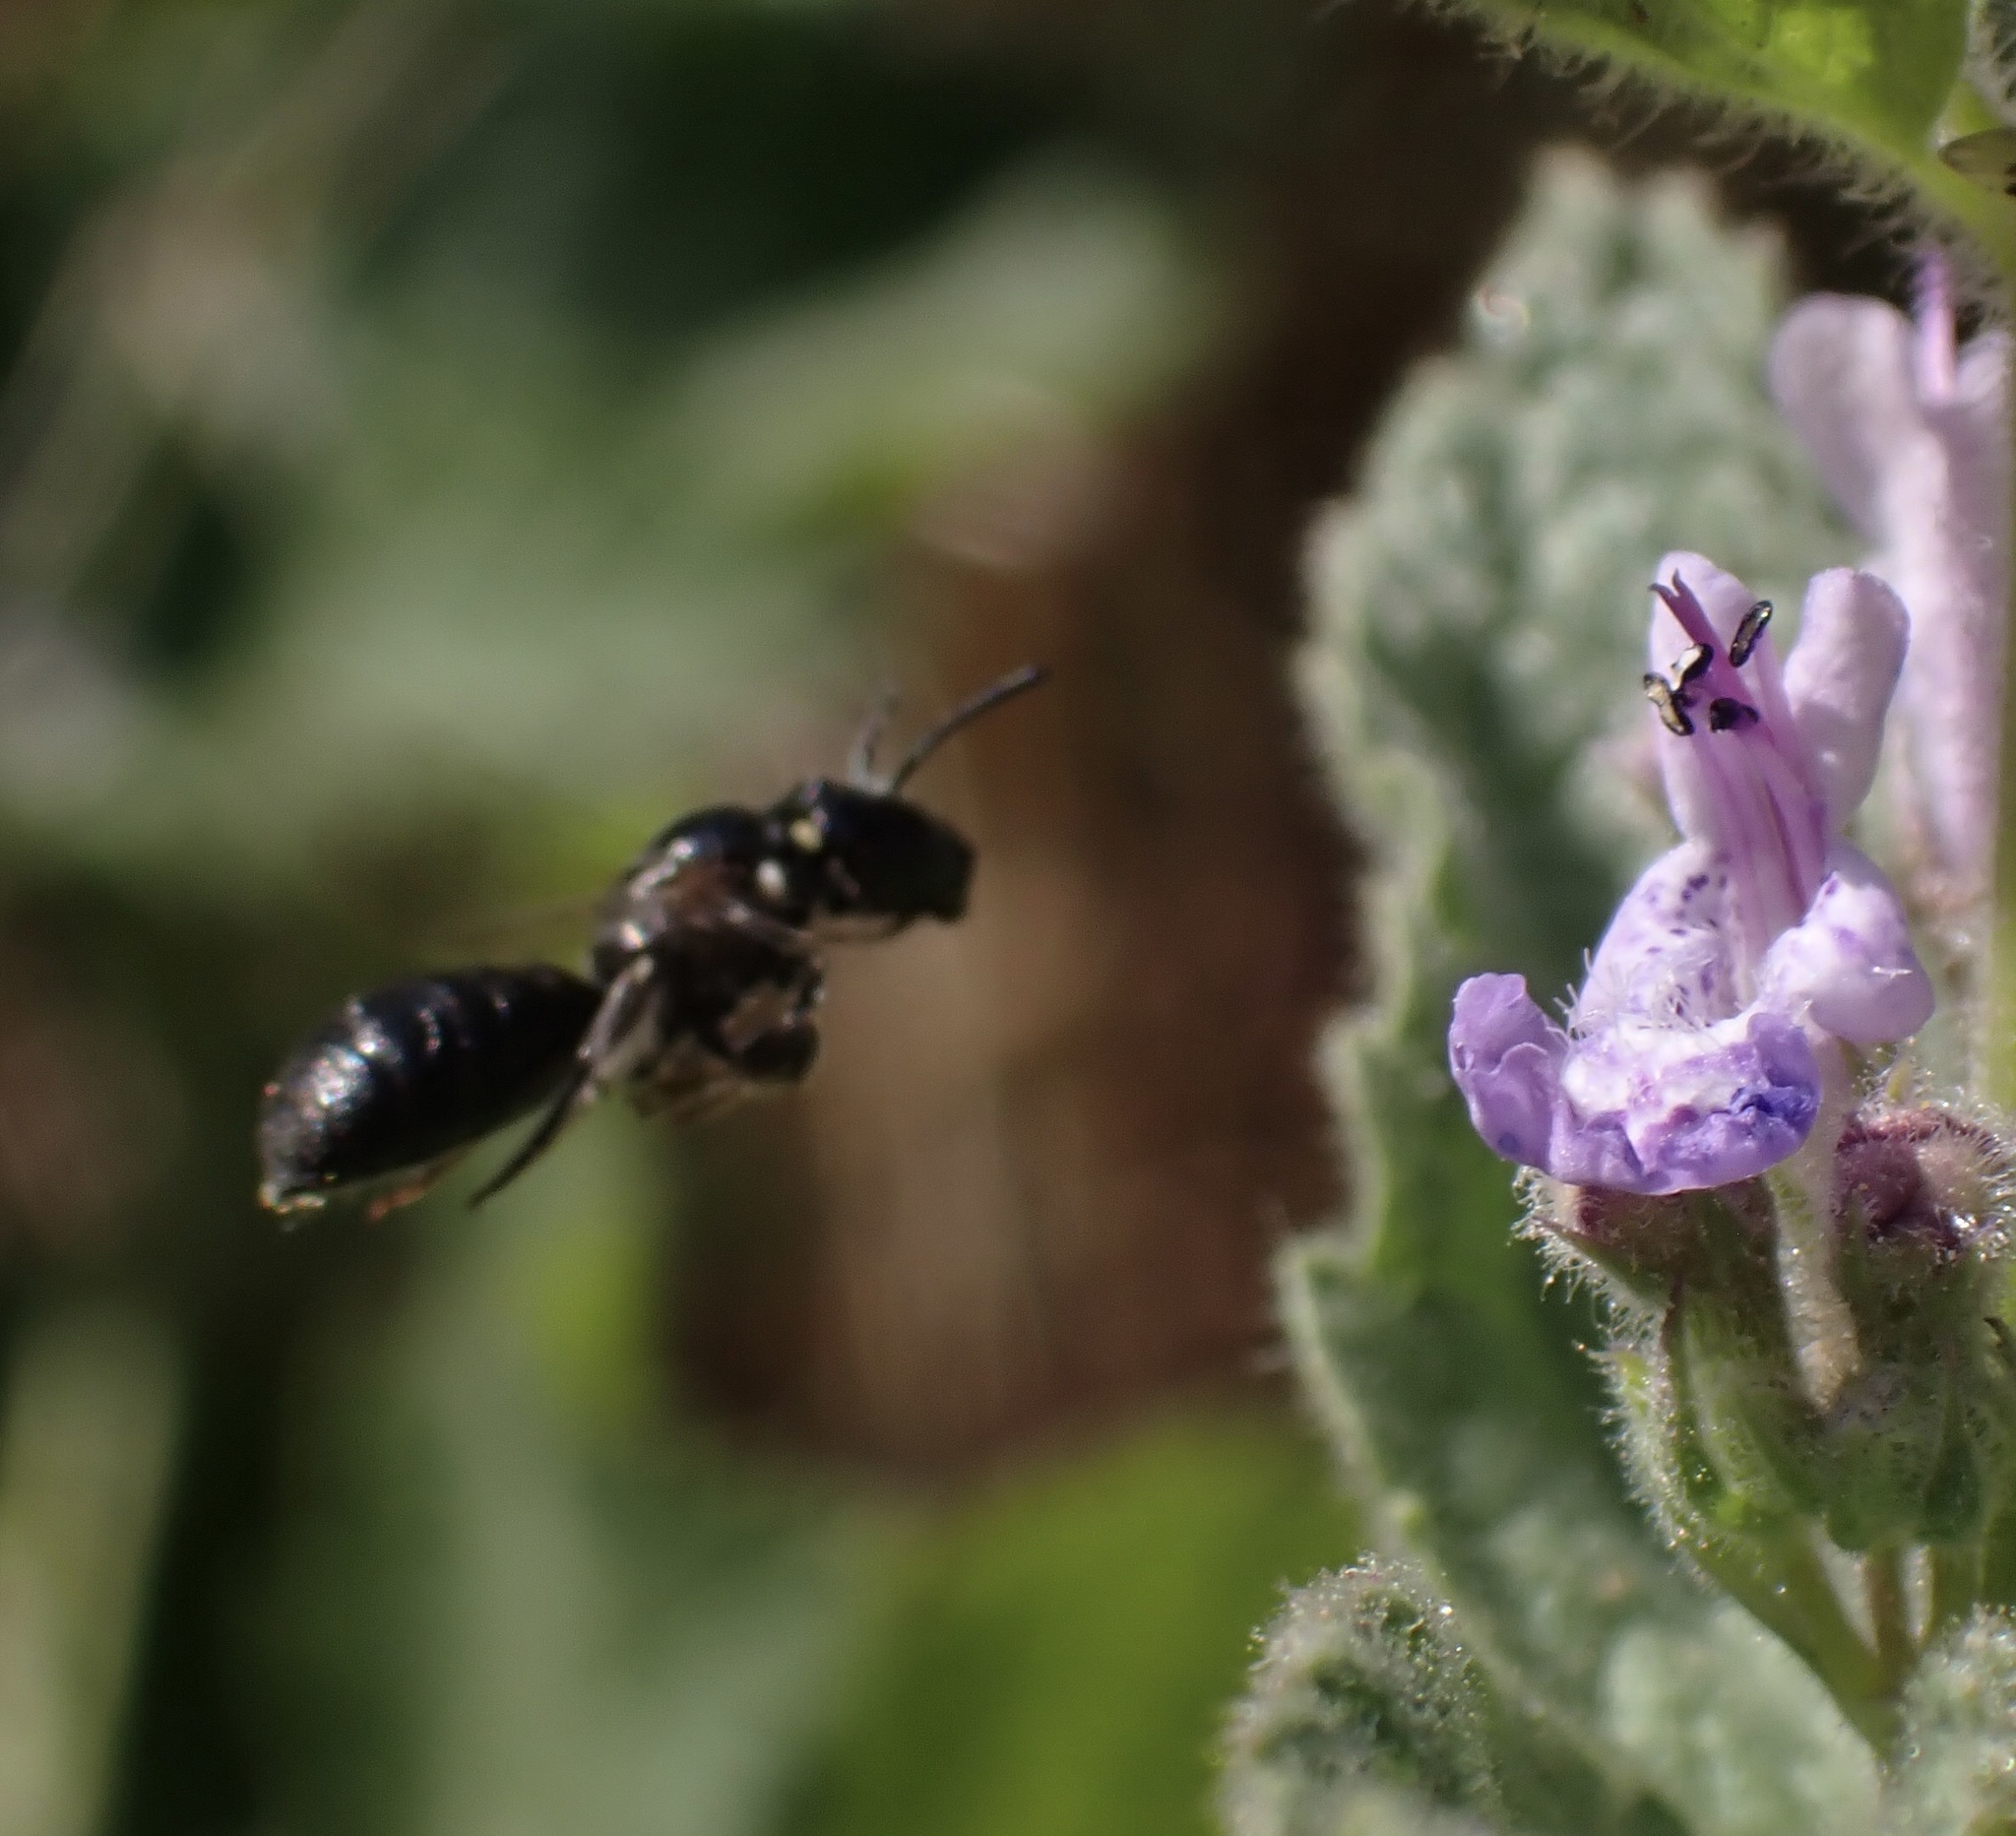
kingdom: Animalia
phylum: Arthropoda
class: Insecta
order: Hymenoptera
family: Apidae
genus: Ceratina
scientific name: Ceratina cucurbitina
